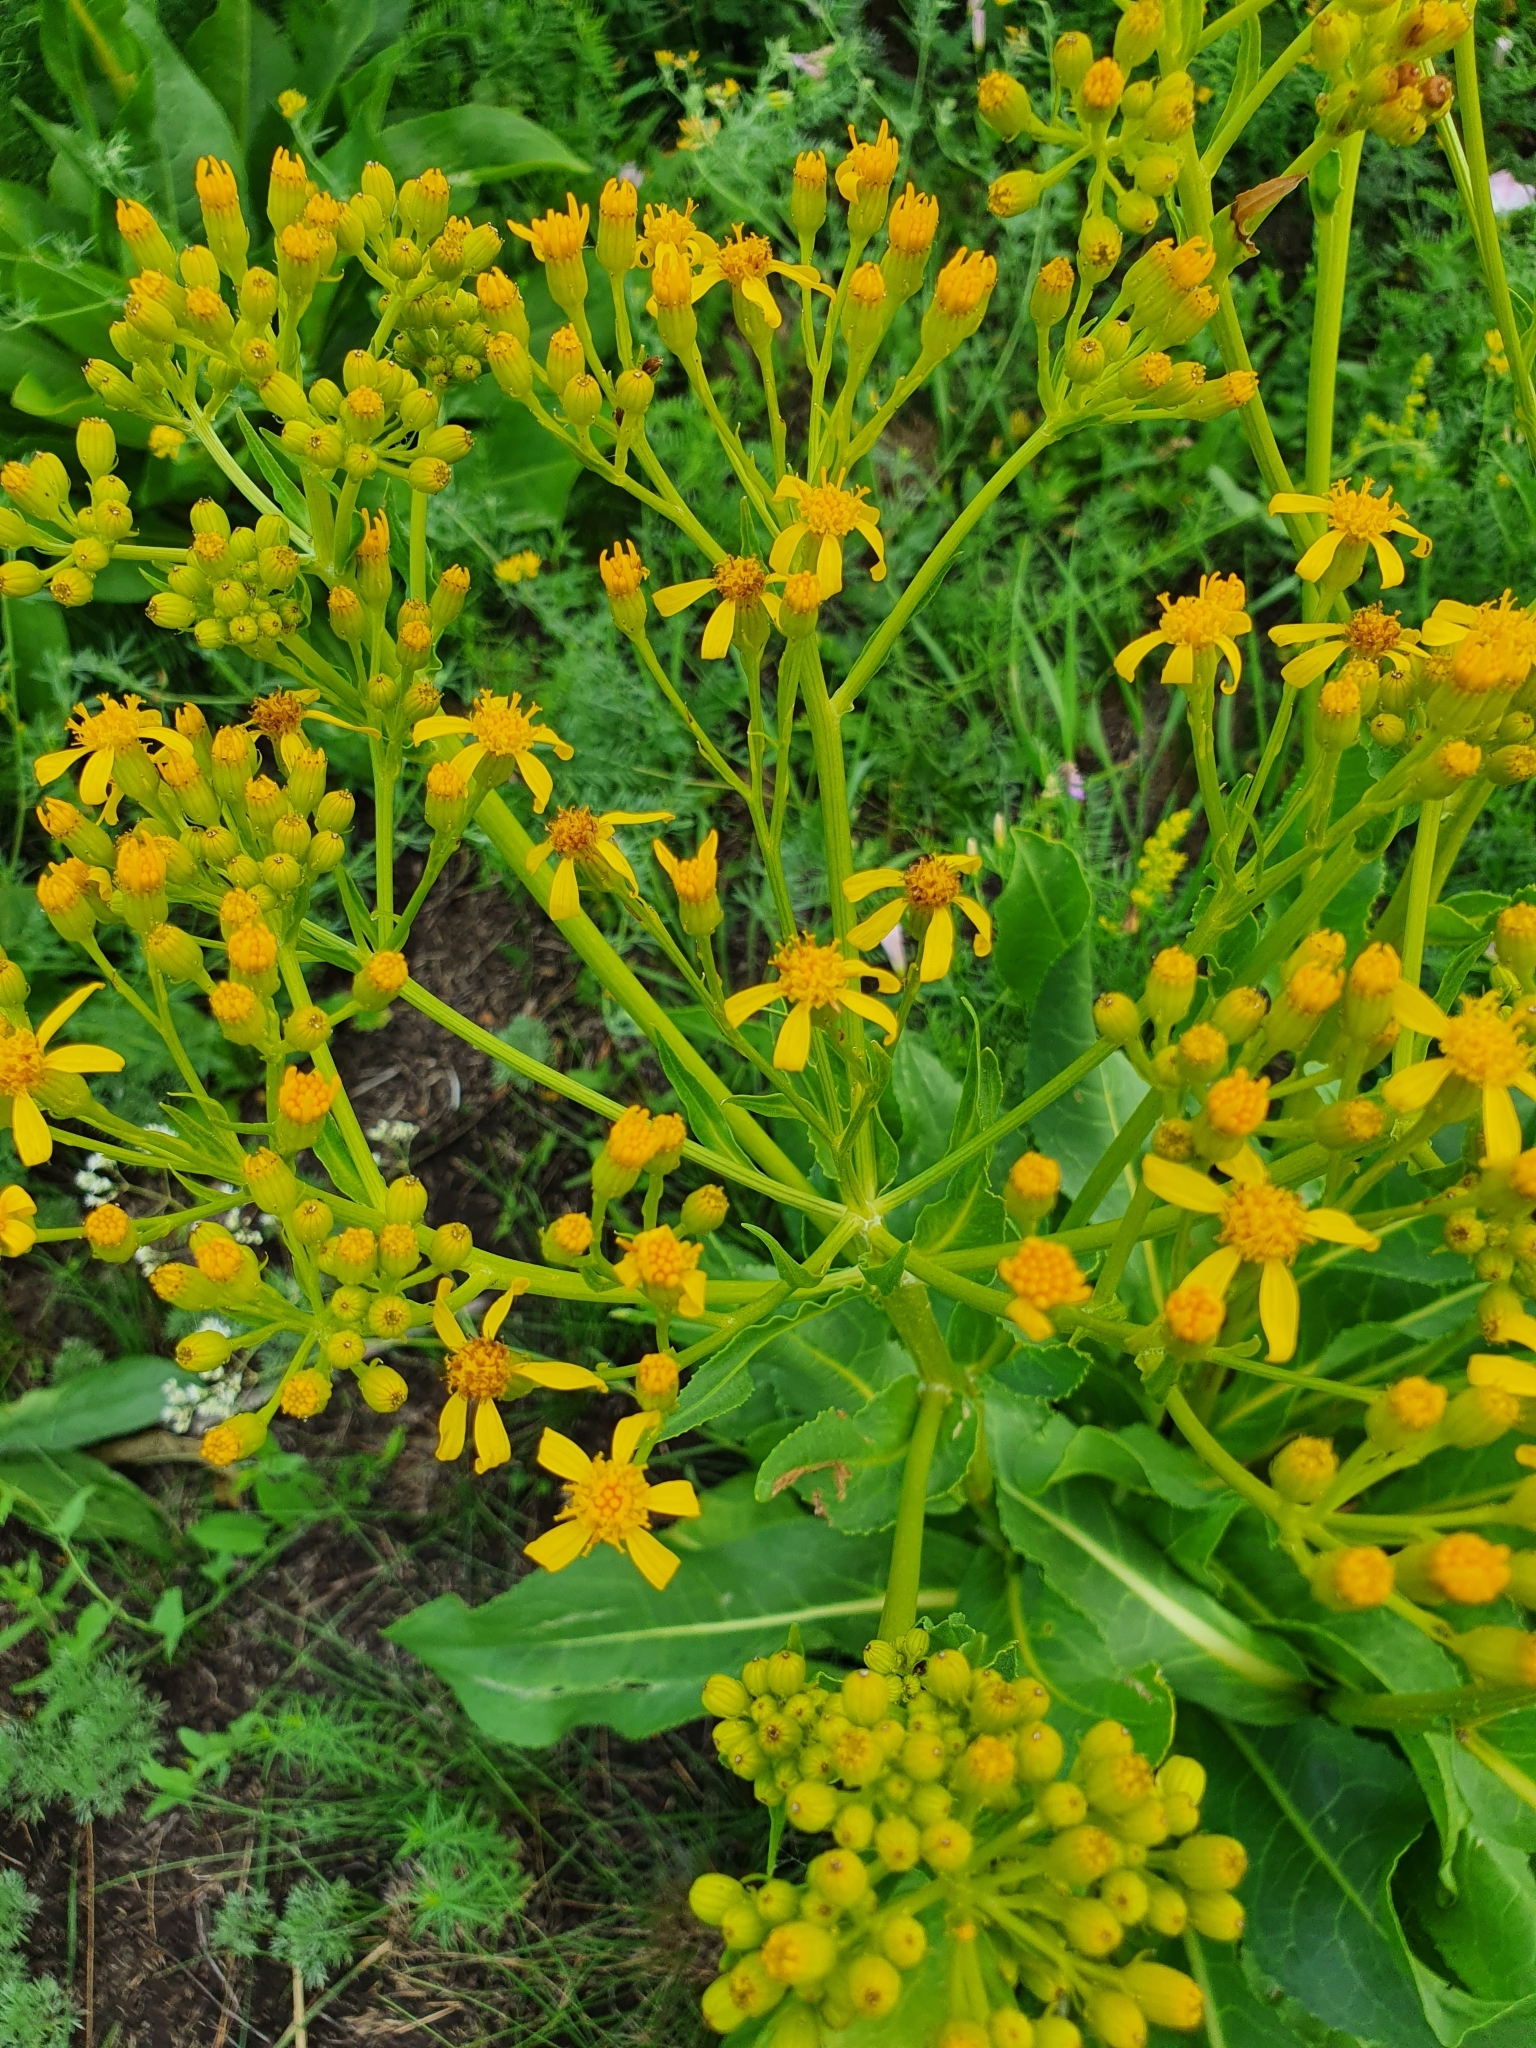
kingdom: Plantae
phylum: Tracheophyta
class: Magnoliopsida
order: Asterales
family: Asteraceae
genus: Senecio
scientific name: Senecio doria
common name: Golden ragwort
